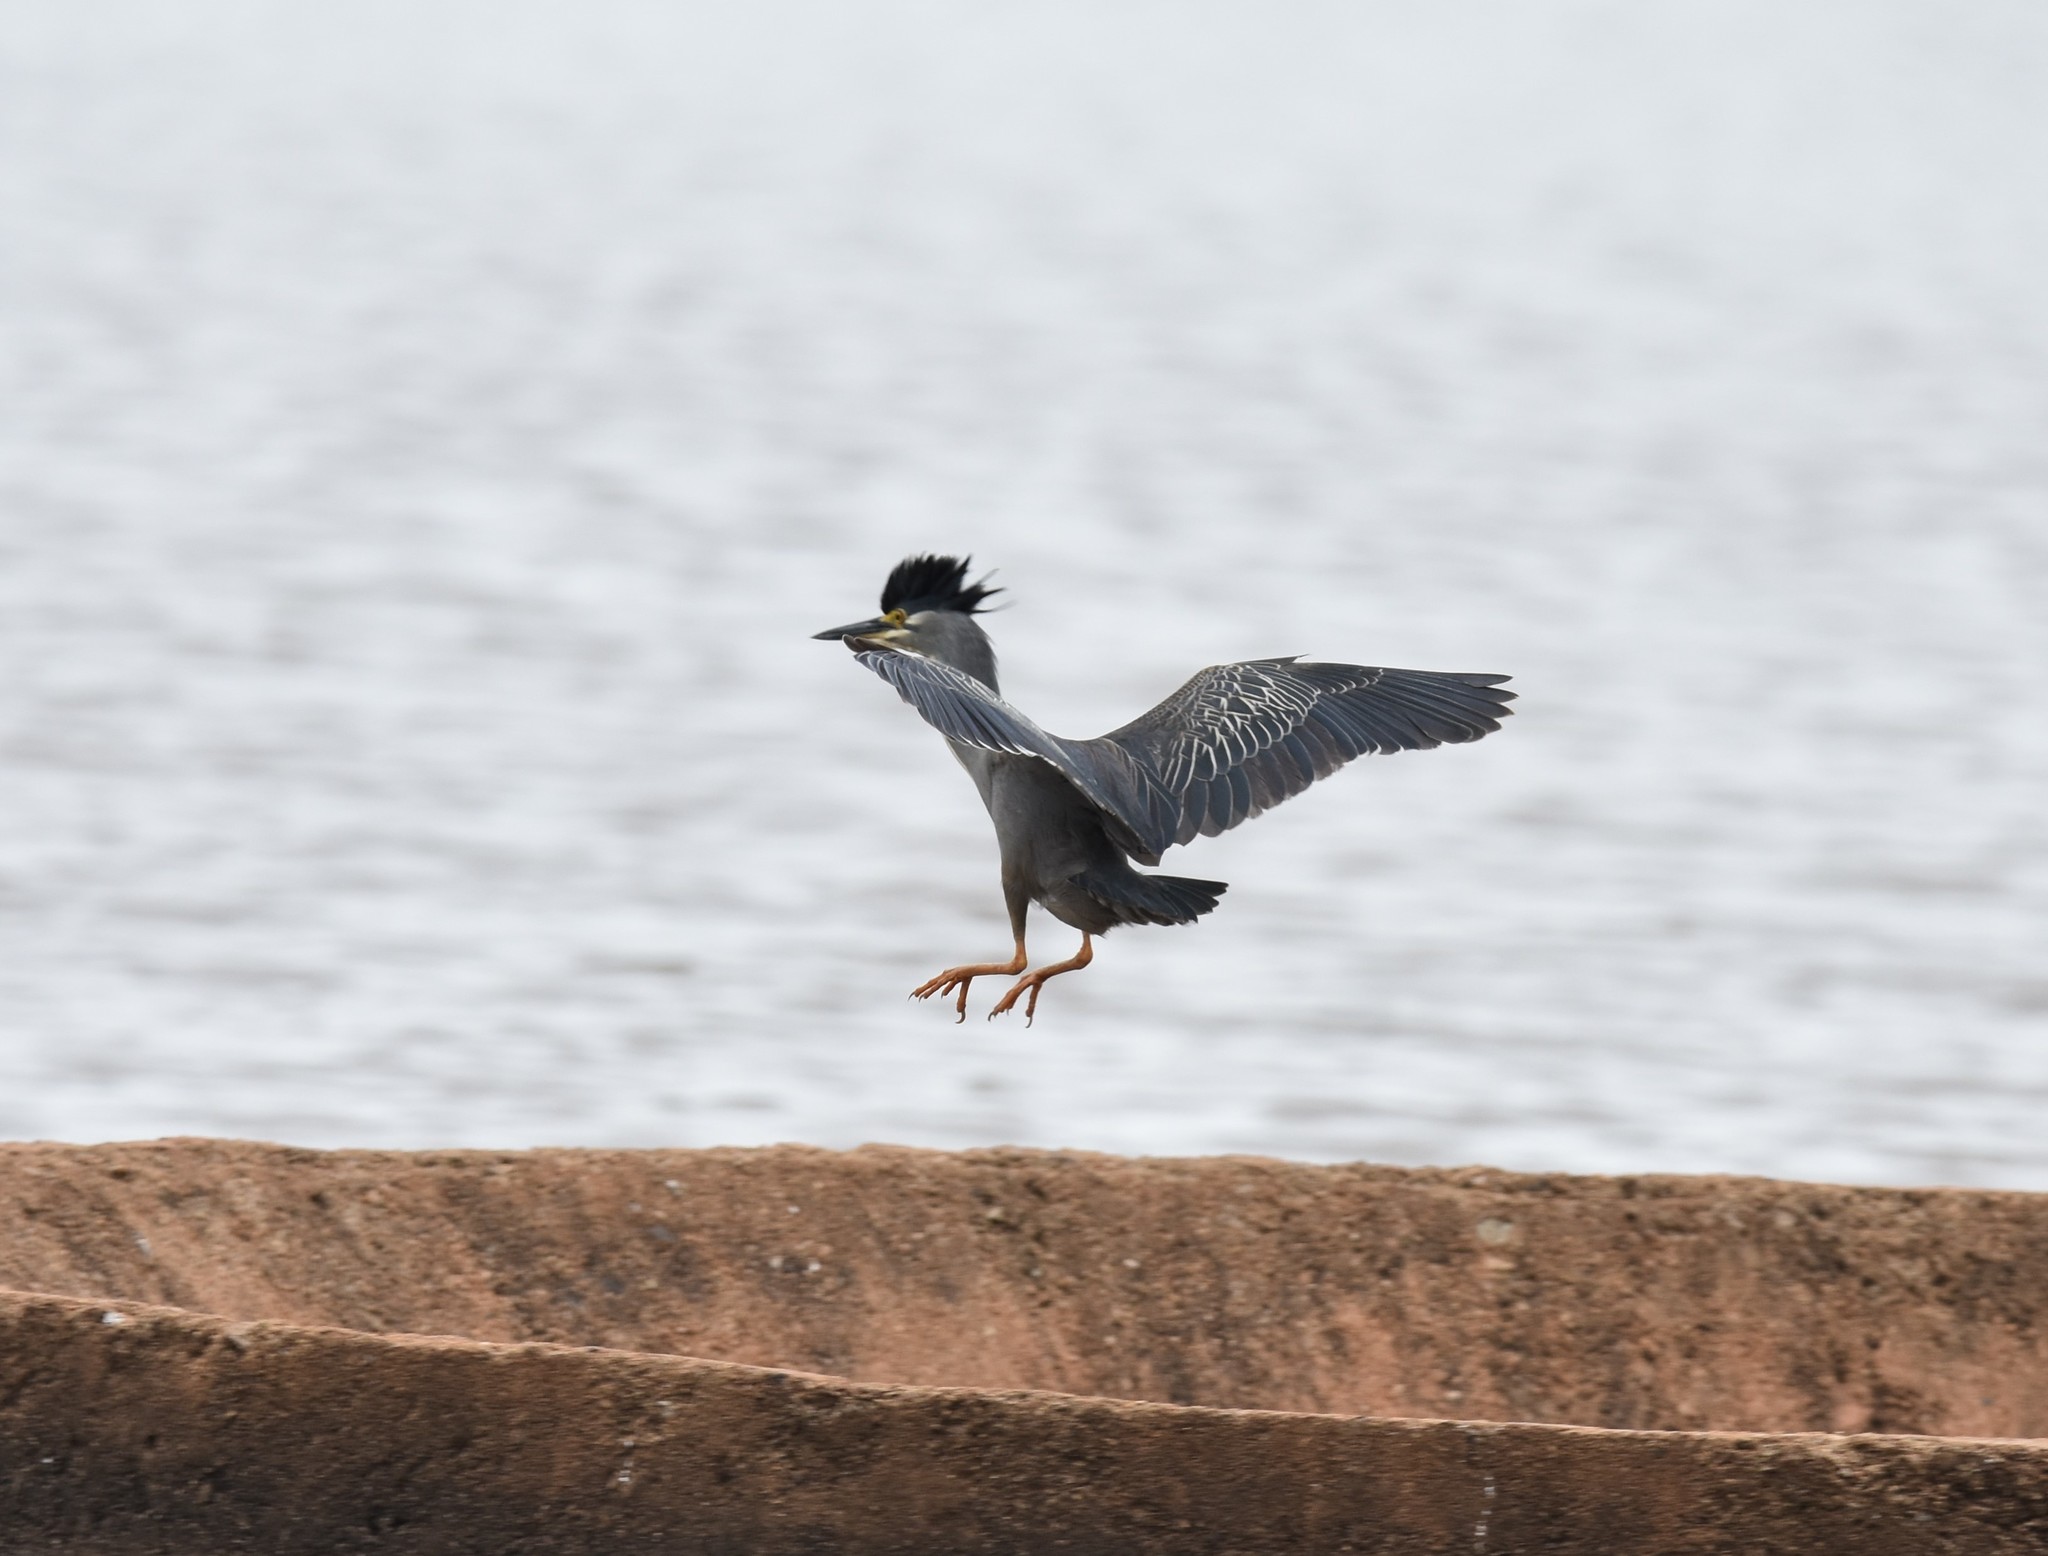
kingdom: Animalia
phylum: Chordata
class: Aves
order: Pelecaniformes
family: Ardeidae
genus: Butorides
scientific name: Butorides striata
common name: Striated heron
